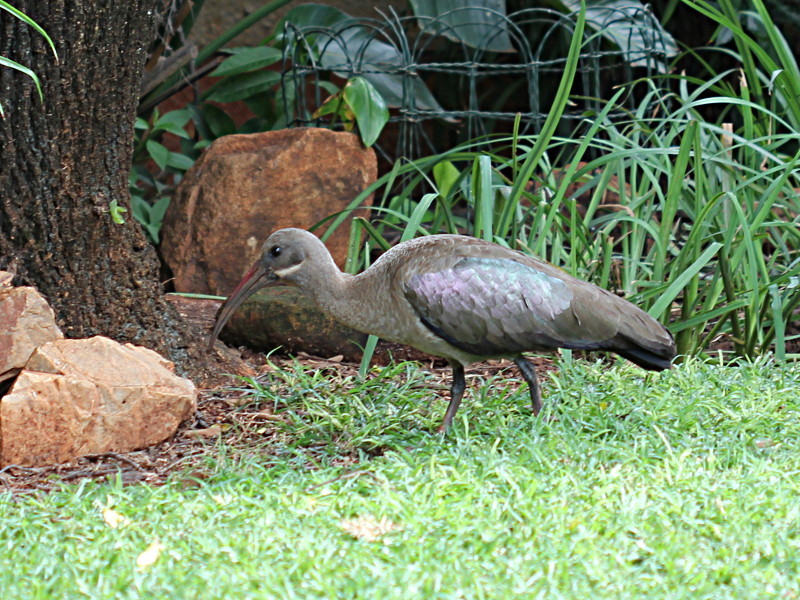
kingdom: Animalia
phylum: Chordata
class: Aves
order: Pelecaniformes
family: Threskiornithidae
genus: Bostrychia
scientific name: Bostrychia hagedash
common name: Hadada ibis
